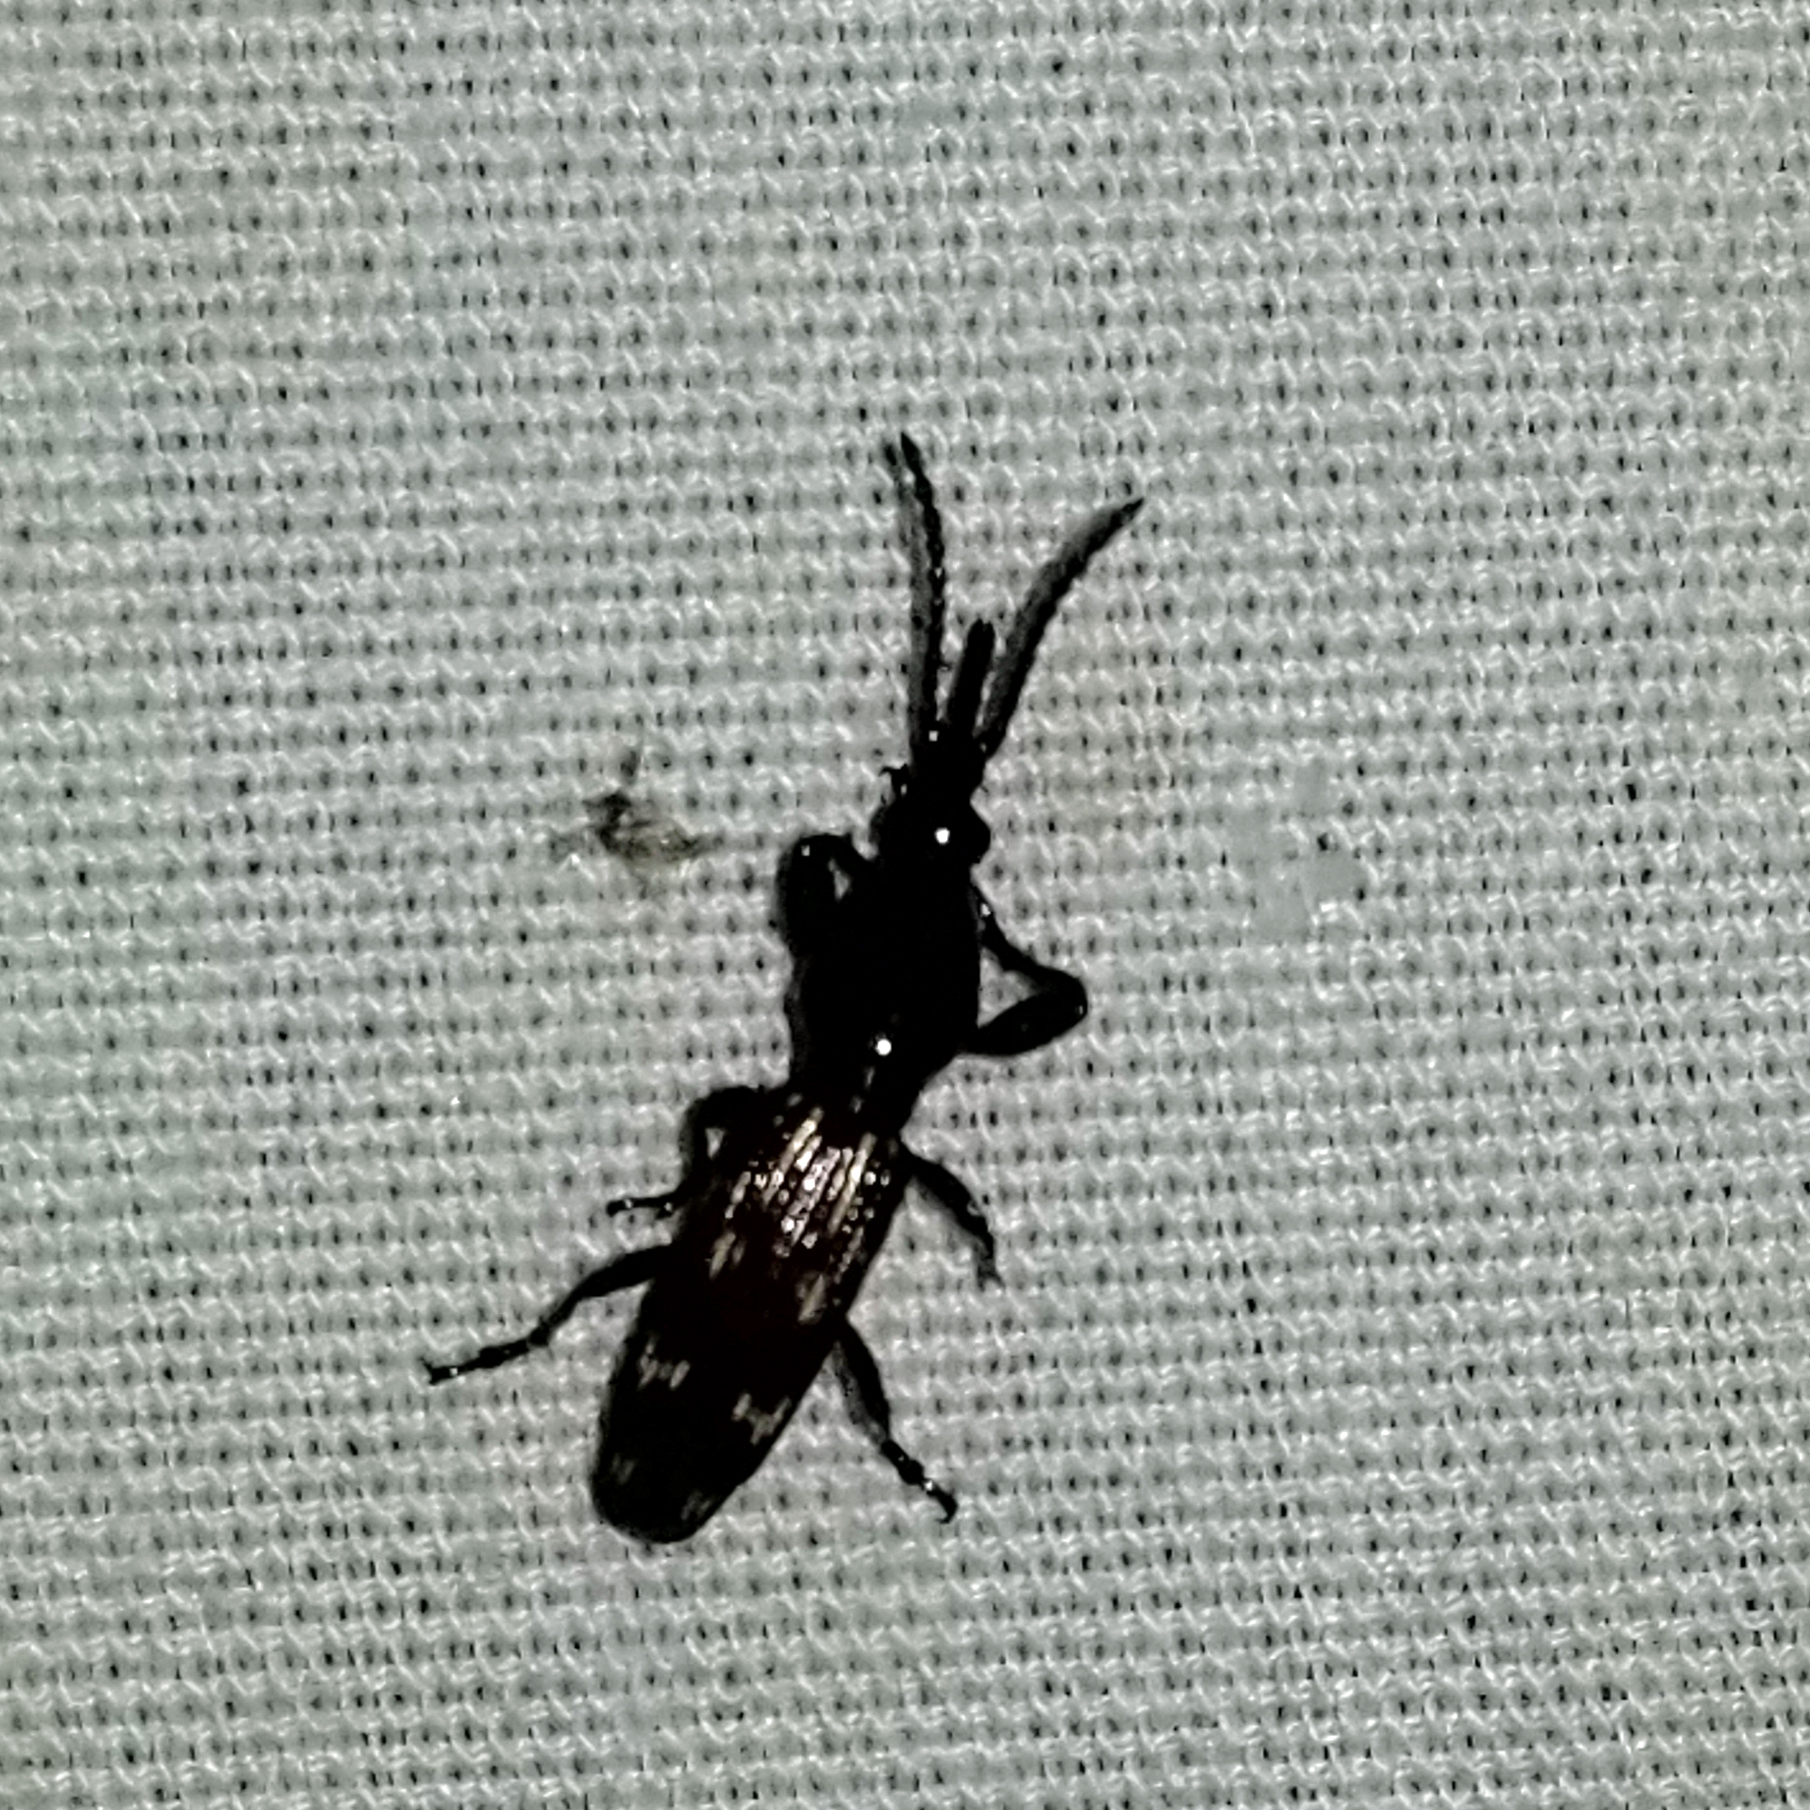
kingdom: Animalia
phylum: Arthropoda
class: Insecta
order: Coleoptera
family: Brentidae
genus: Arrenodes
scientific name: Arrenodes minutus
